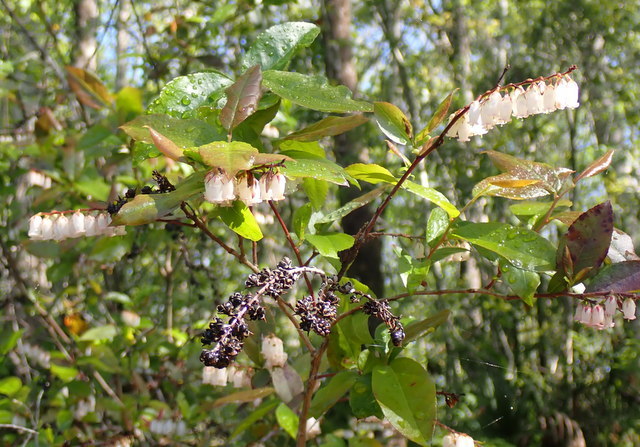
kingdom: Plantae
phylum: Tracheophyta
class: Magnoliopsida
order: Ericales
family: Ericaceae
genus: Eubotrys
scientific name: Eubotrys racemosa
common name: Fetterbush
